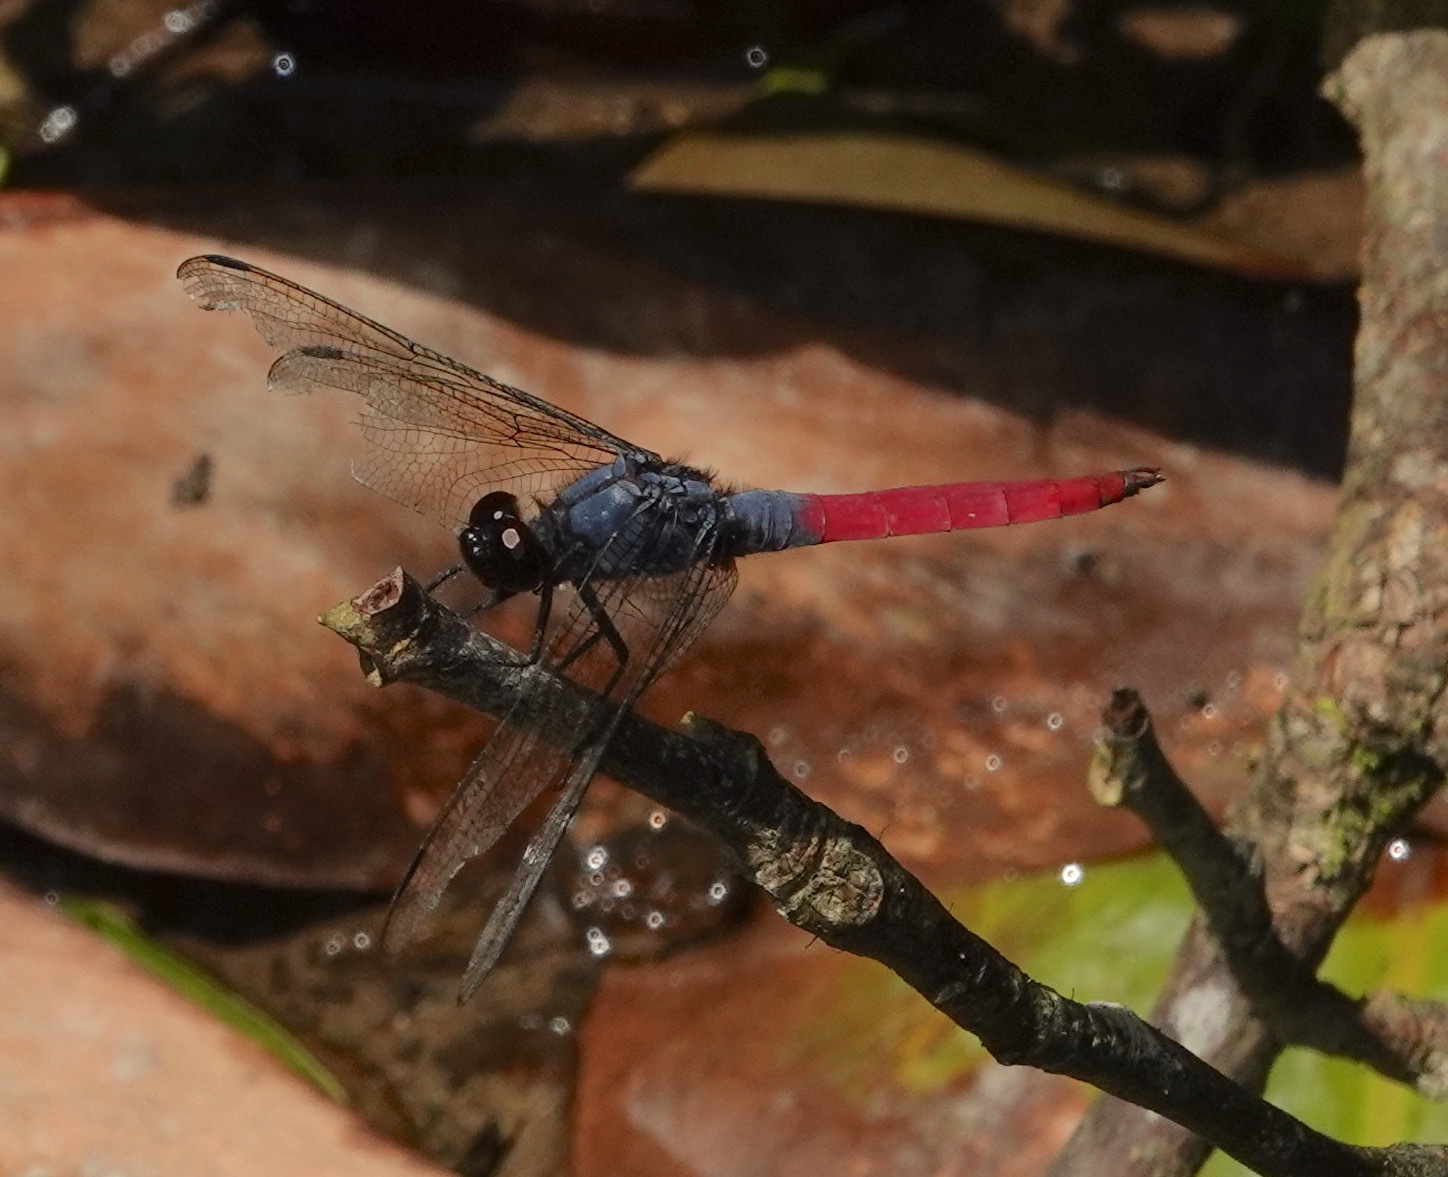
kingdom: Animalia
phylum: Arthropoda
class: Insecta
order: Odonata
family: Libellulidae
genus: Orthetrum
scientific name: Orthetrum schneideri
